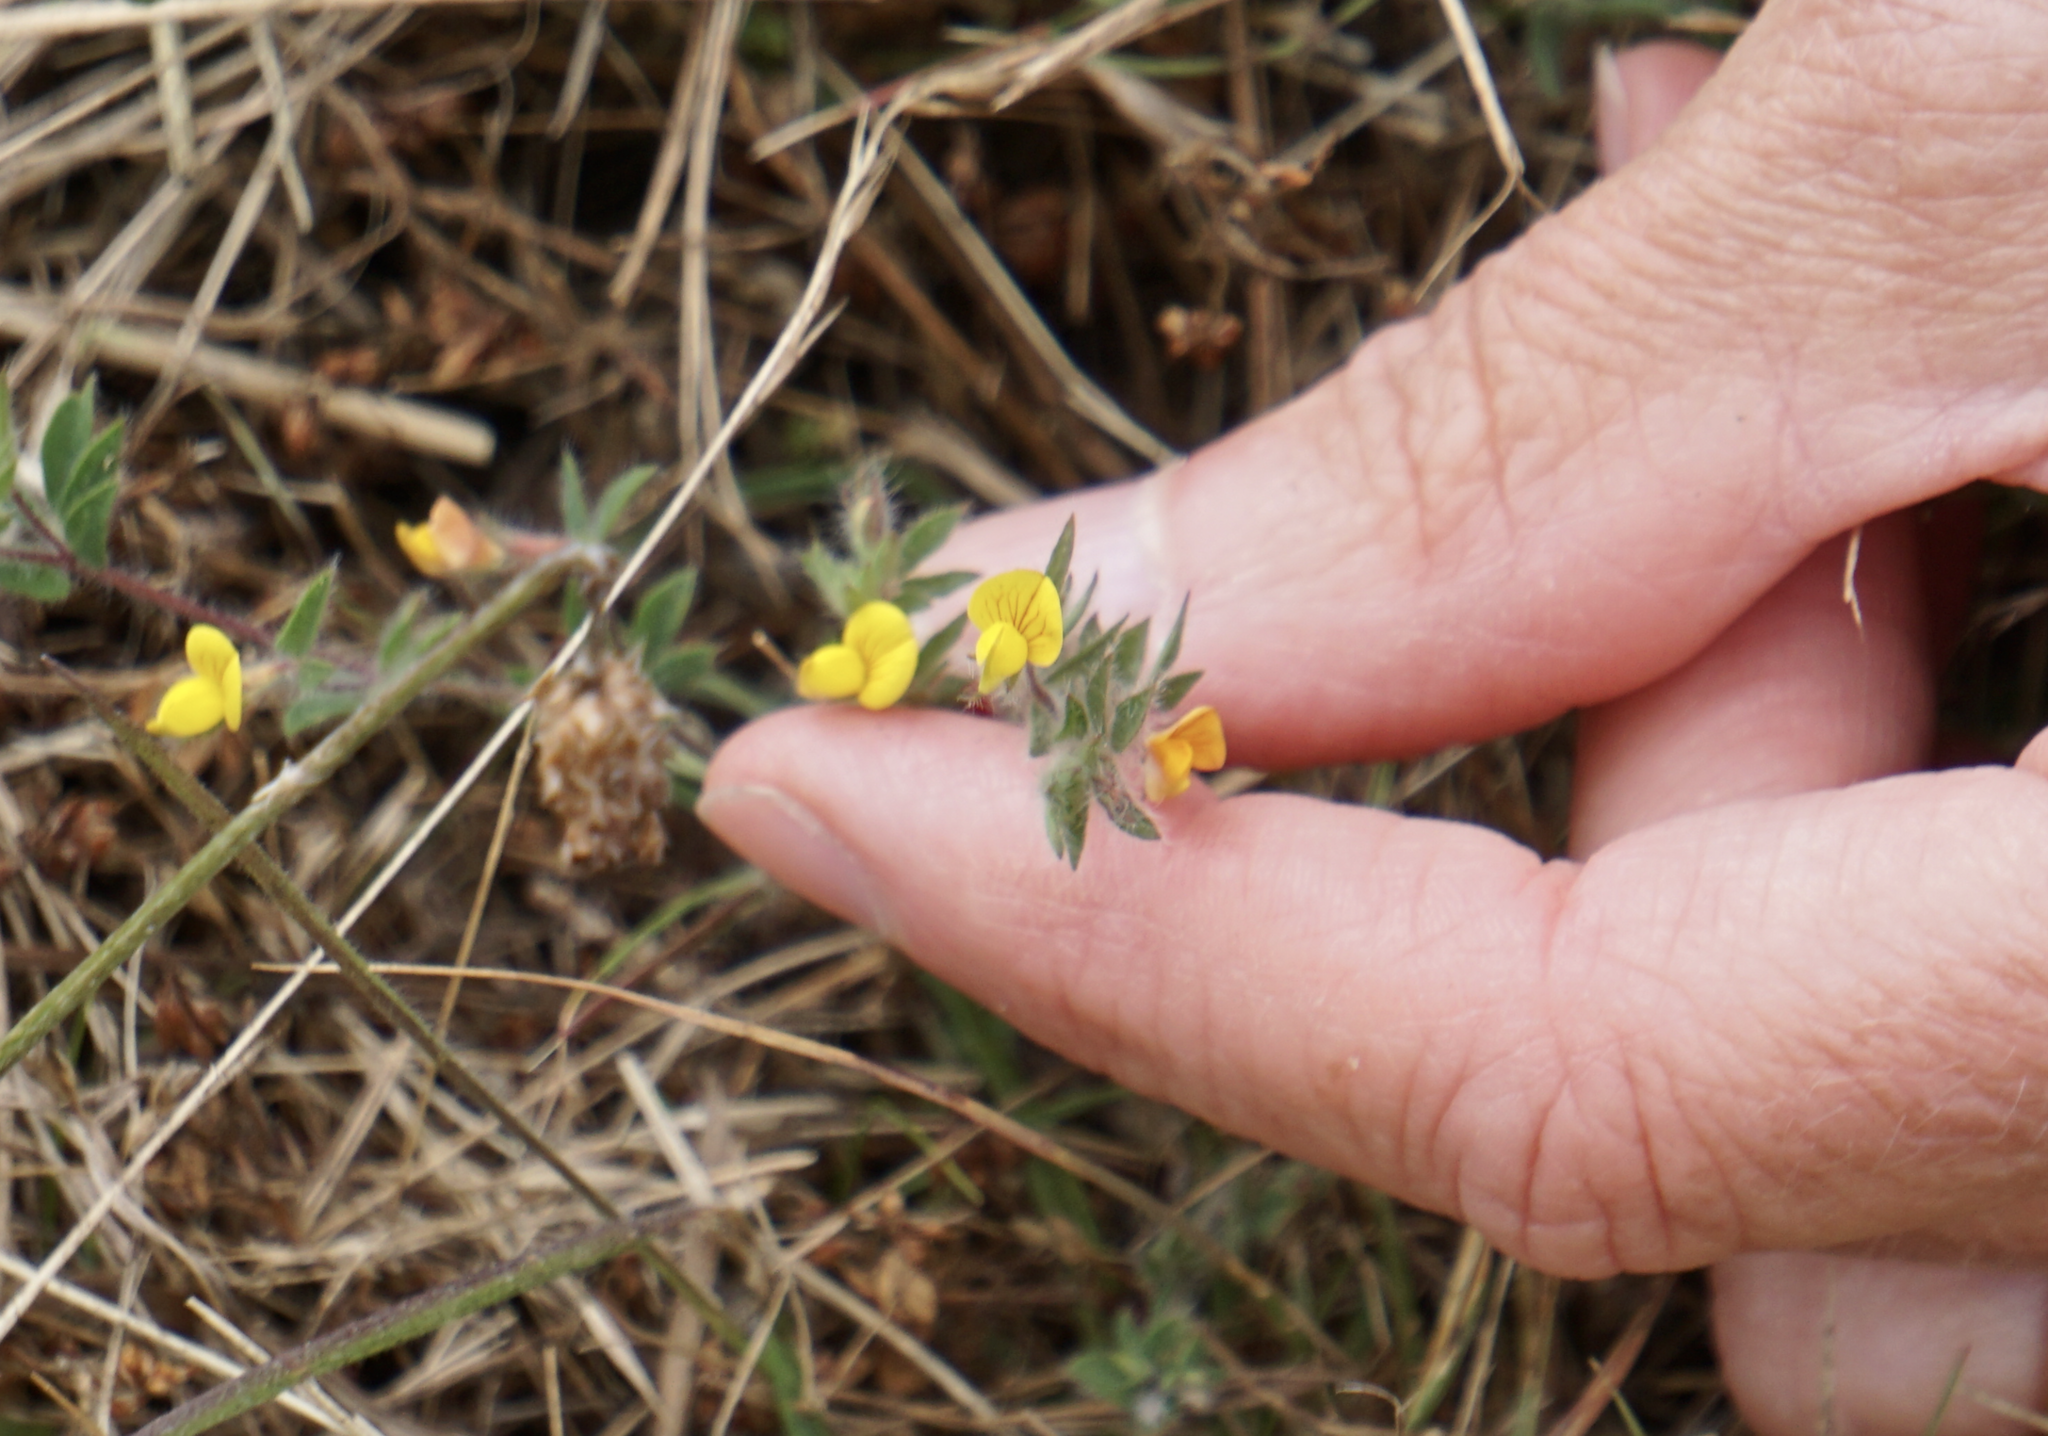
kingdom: Plantae
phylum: Tracheophyta
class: Magnoliopsida
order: Fabales
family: Fabaceae
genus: Lotus
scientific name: Lotus angustissimus
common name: Slender bird's-foot trefoil
